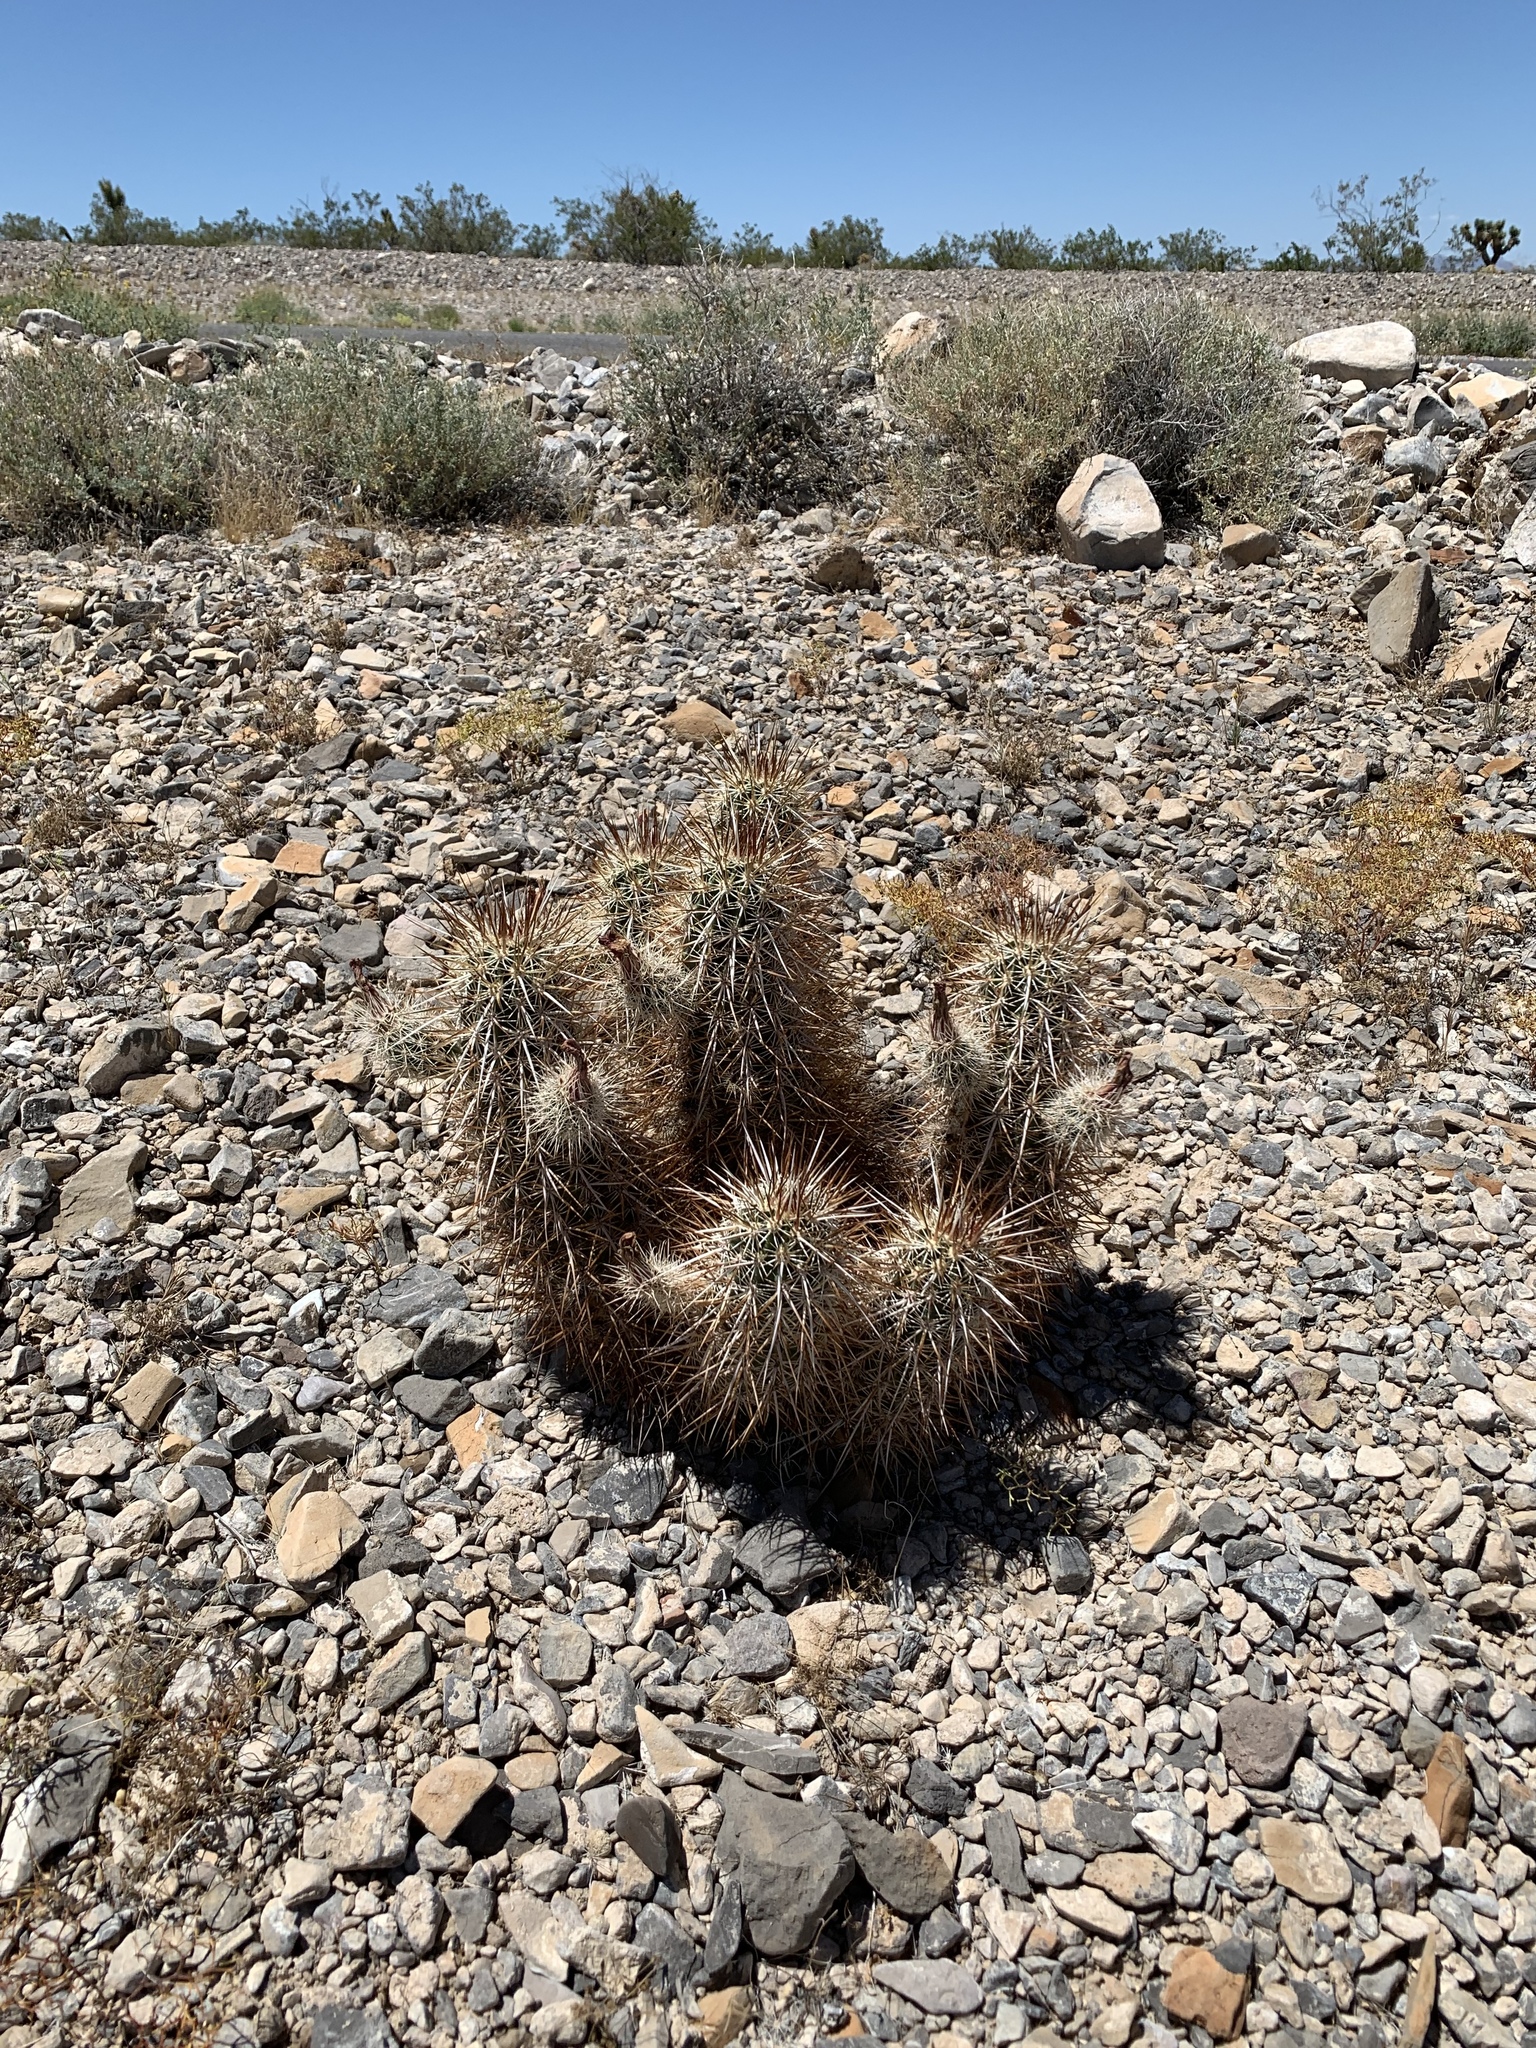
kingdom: Plantae
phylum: Tracheophyta
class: Magnoliopsida
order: Caryophyllales
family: Cactaceae
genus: Echinocereus
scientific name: Echinocereus engelmannii
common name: Engelmann's hedgehog cactus
